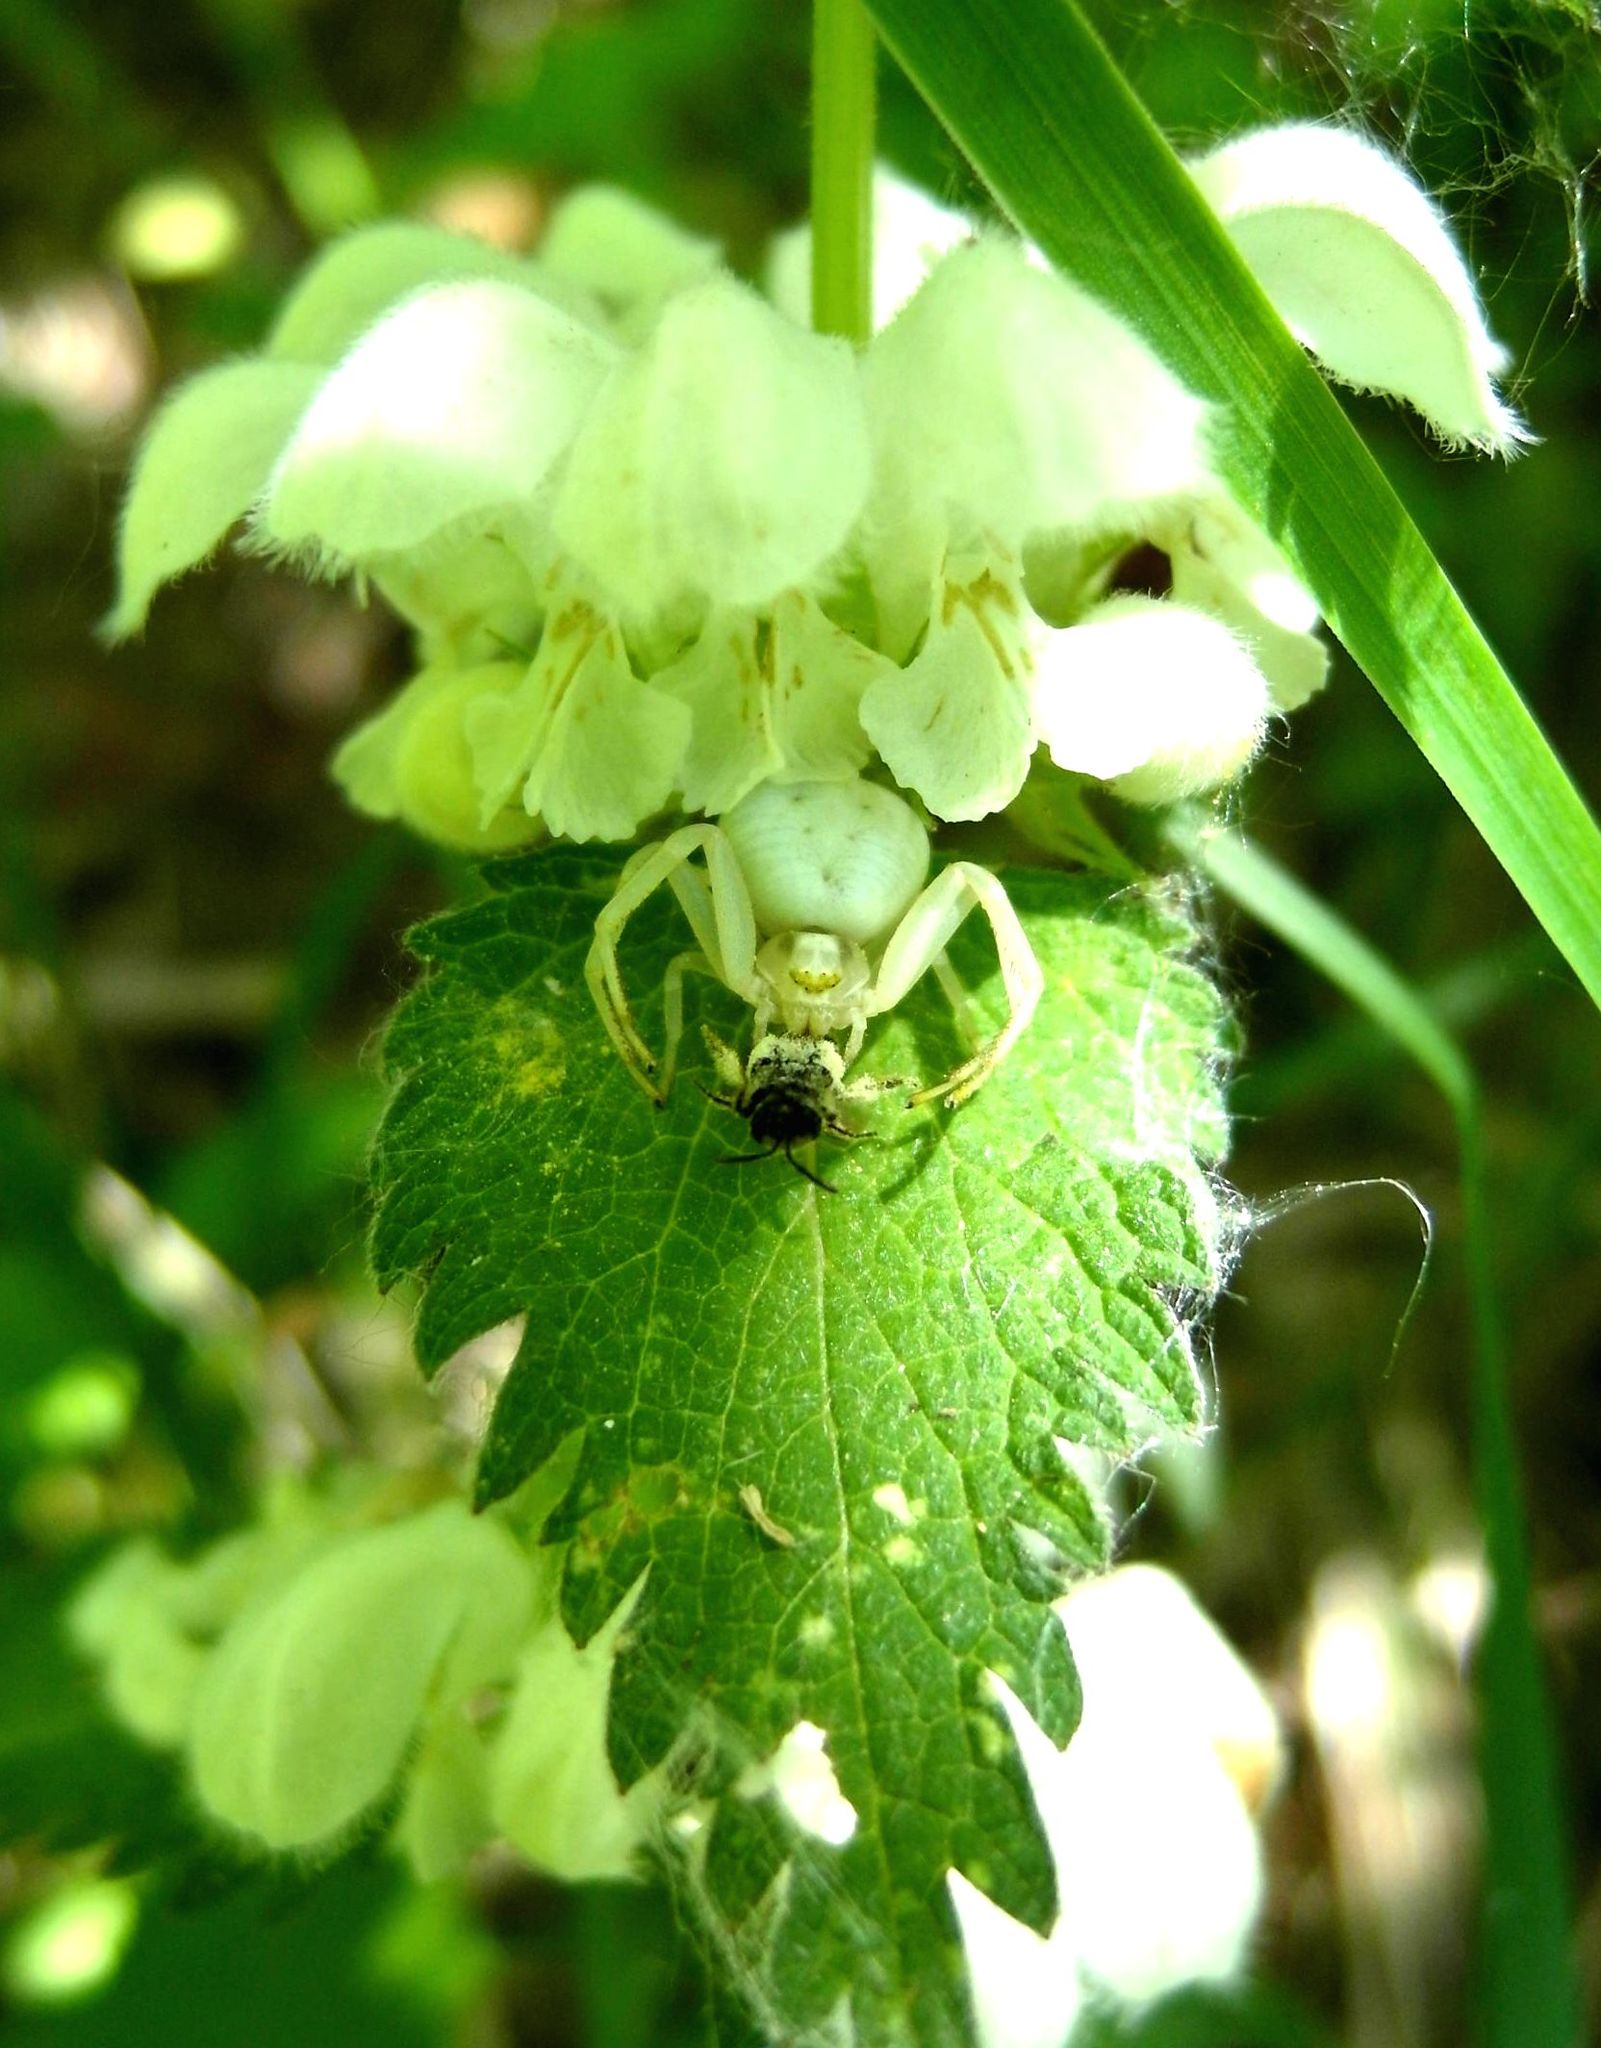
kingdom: Animalia
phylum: Arthropoda
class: Arachnida
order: Araneae
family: Thomisidae
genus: Misumena
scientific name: Misumena vatia
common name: Goldenrod crab spider
